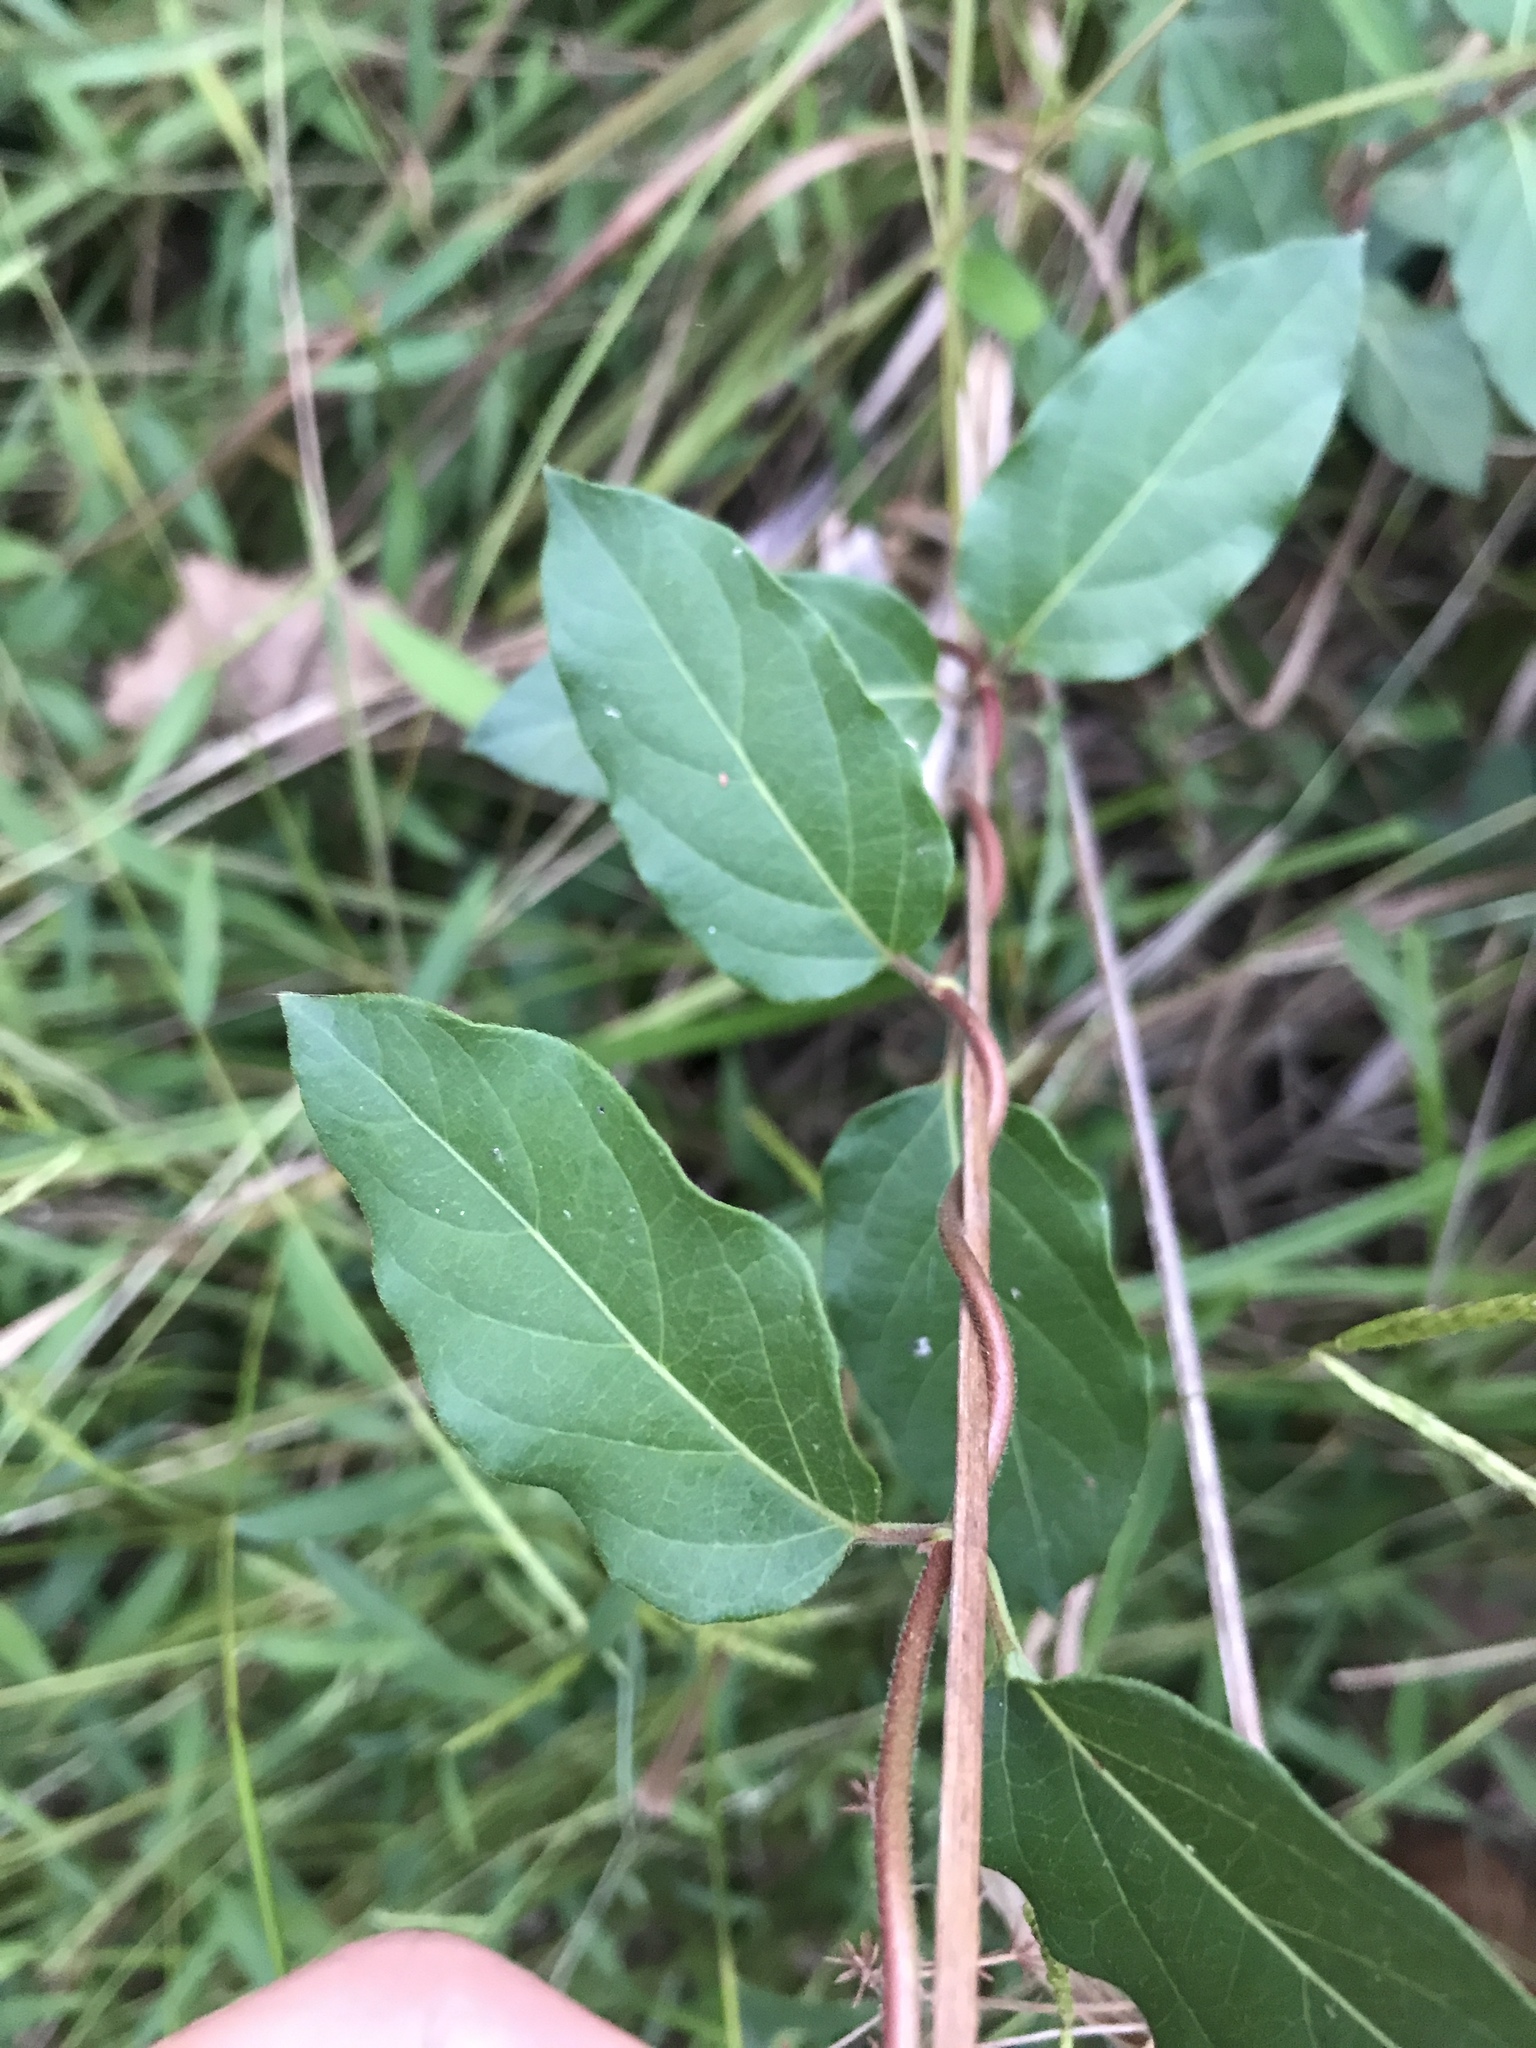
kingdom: Plantae
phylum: Tracheophyta
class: Magnoliopsida
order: Dipsacales
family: Caprifoliaceae
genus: Lonicera
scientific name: Lonicera japonica
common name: Japanese honeysuckle
